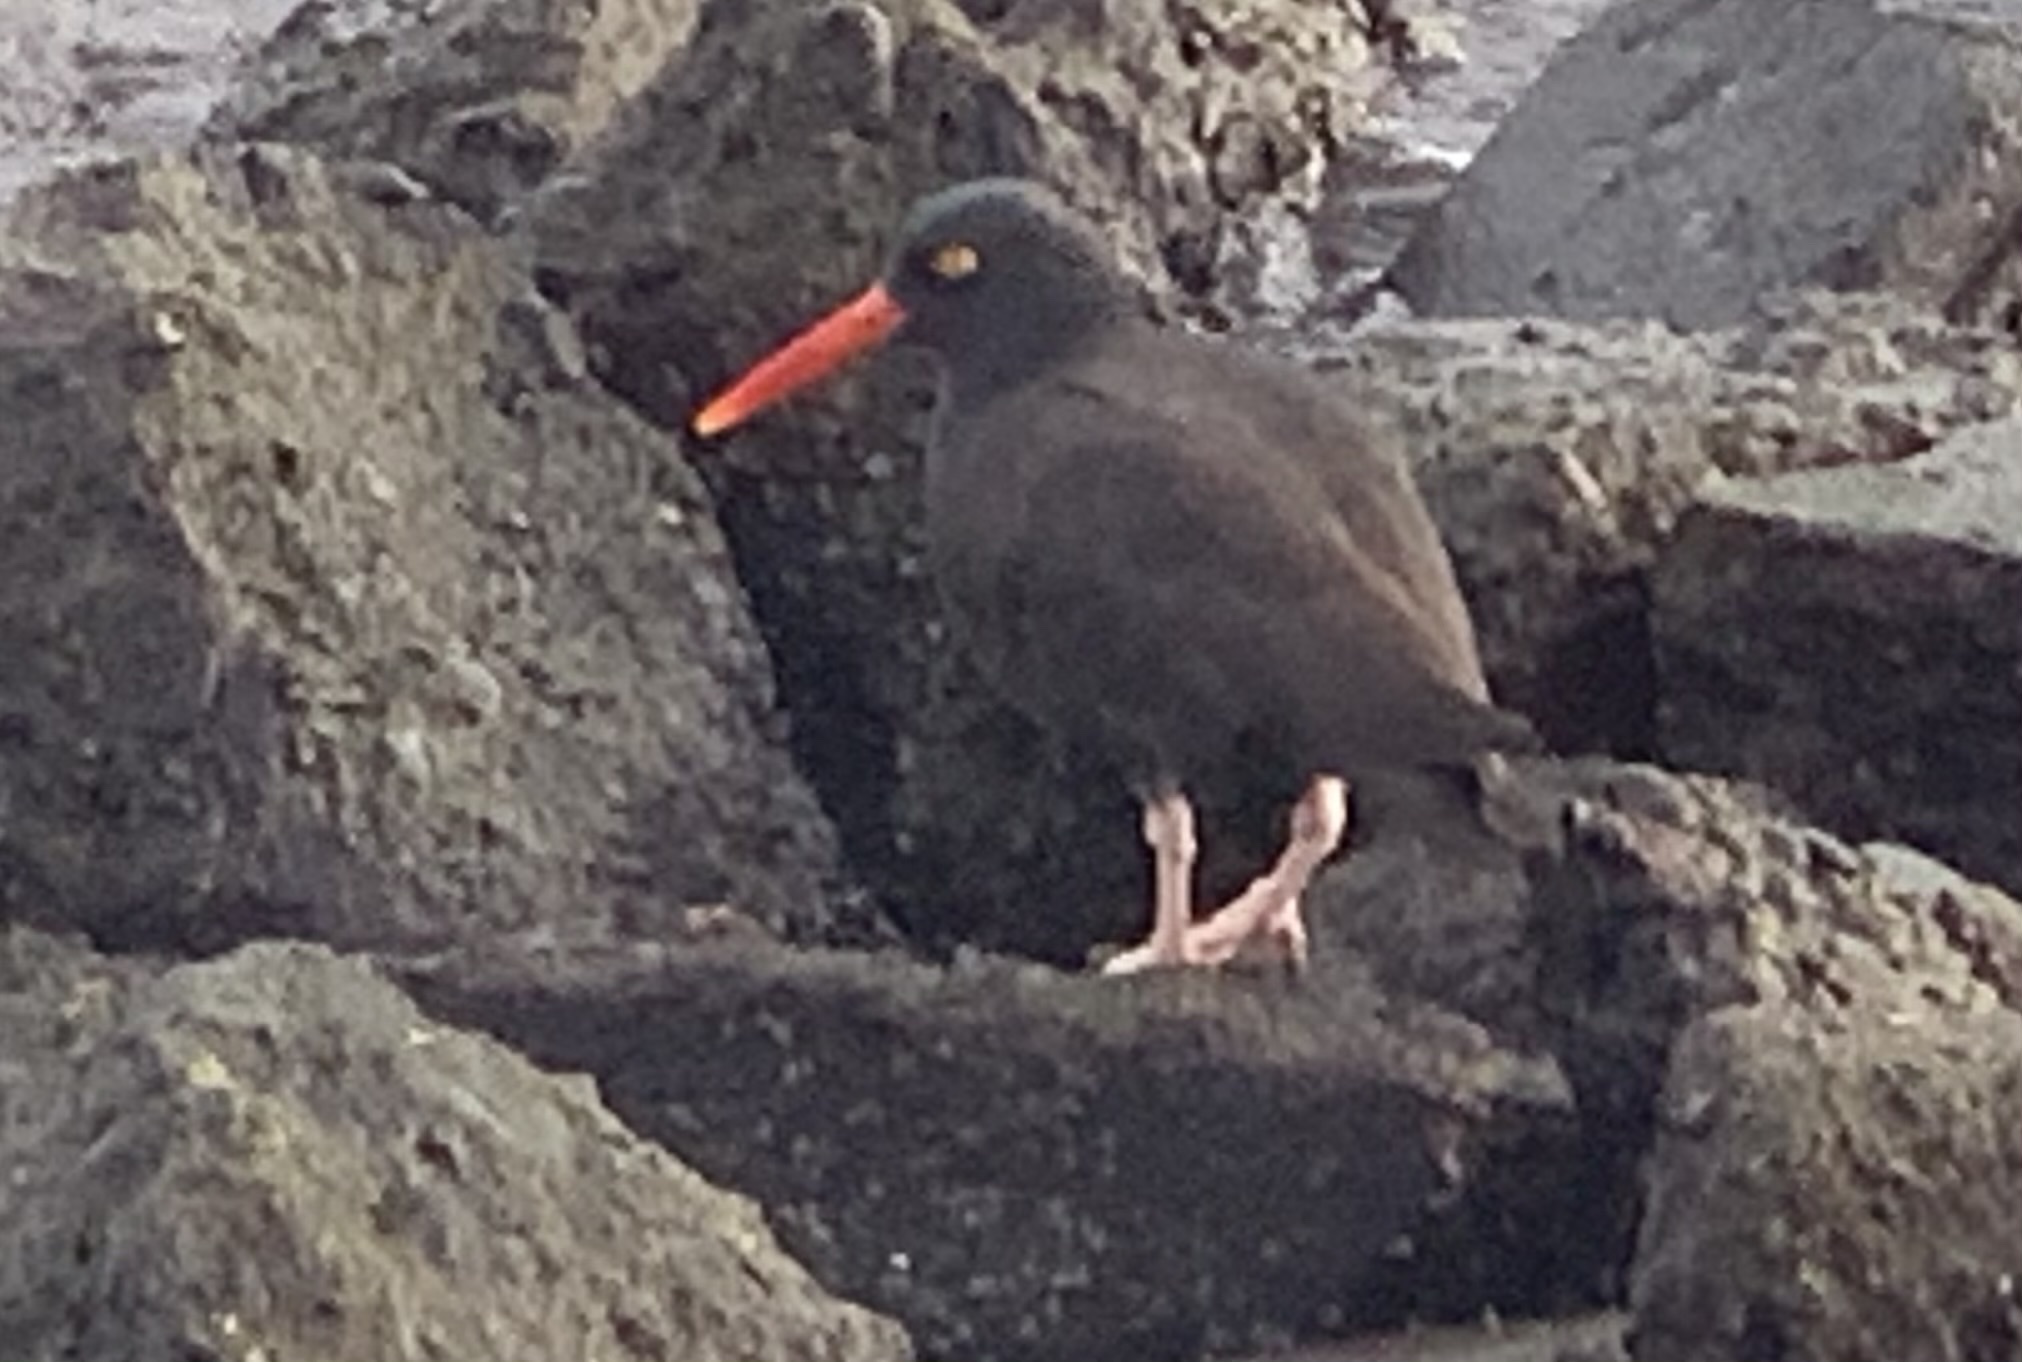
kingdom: Animalia
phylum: Chordata
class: Aves
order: Charadriiformes
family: Haematopodidae
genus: Haematopus
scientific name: Haematopus bachmani
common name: Black oystercatcher
